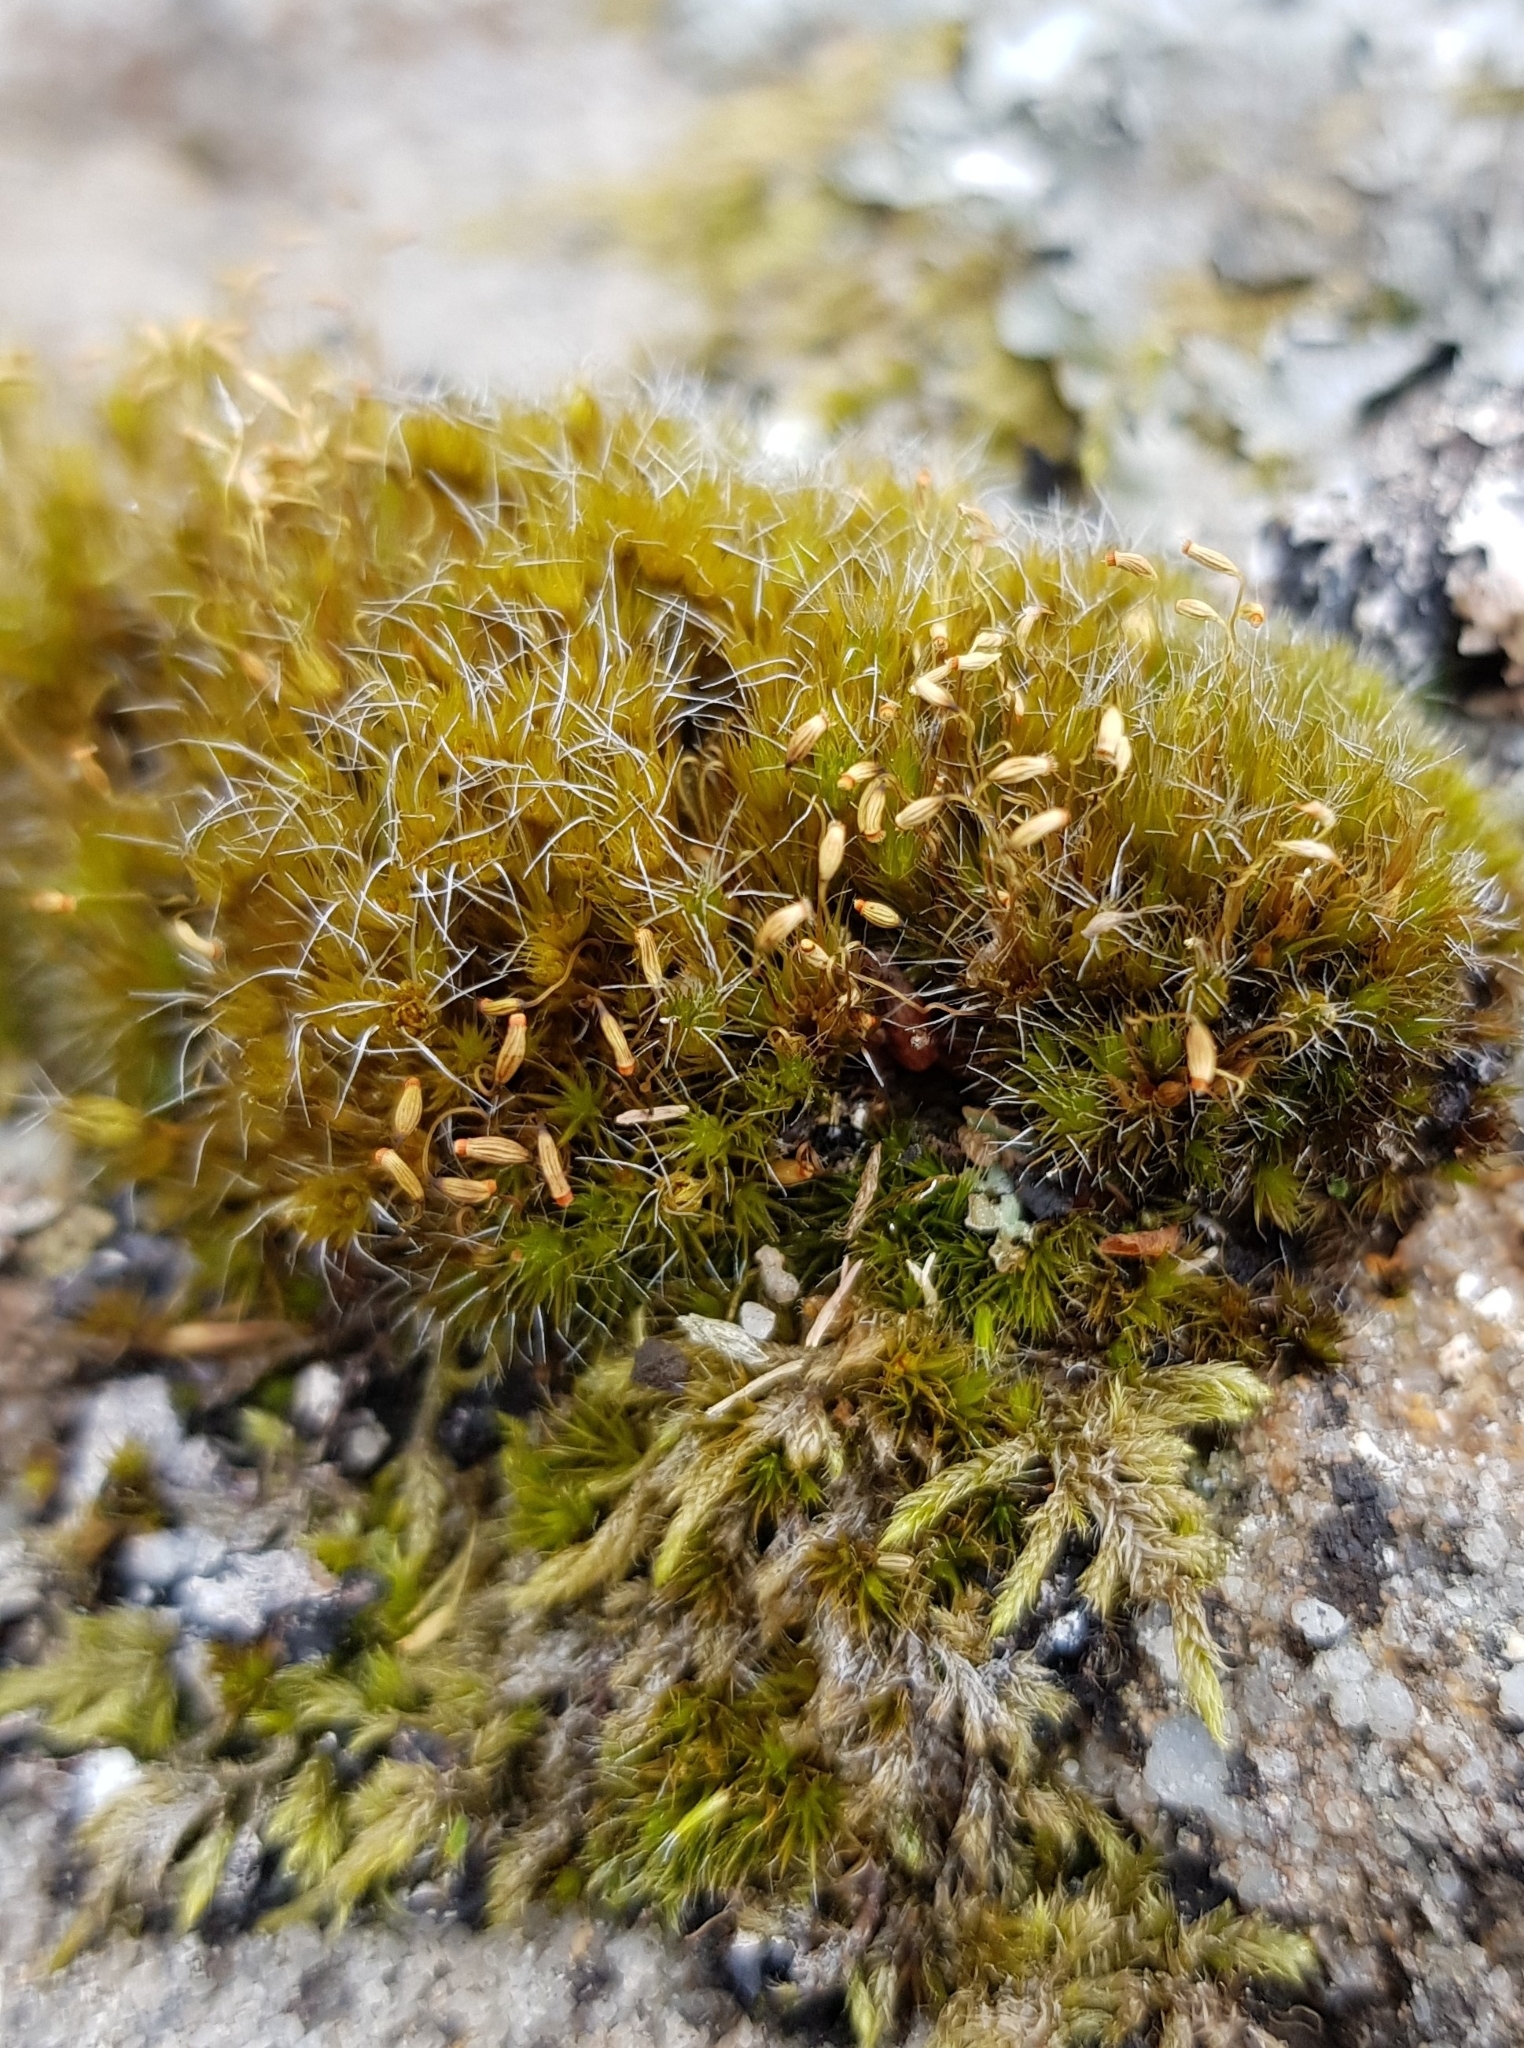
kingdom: Plantae
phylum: Bryophyta
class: Bryopsida
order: Dicranales
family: Leucobryaceae
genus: Campylopus
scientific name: Campylopus introflexus
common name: Heath star moss
